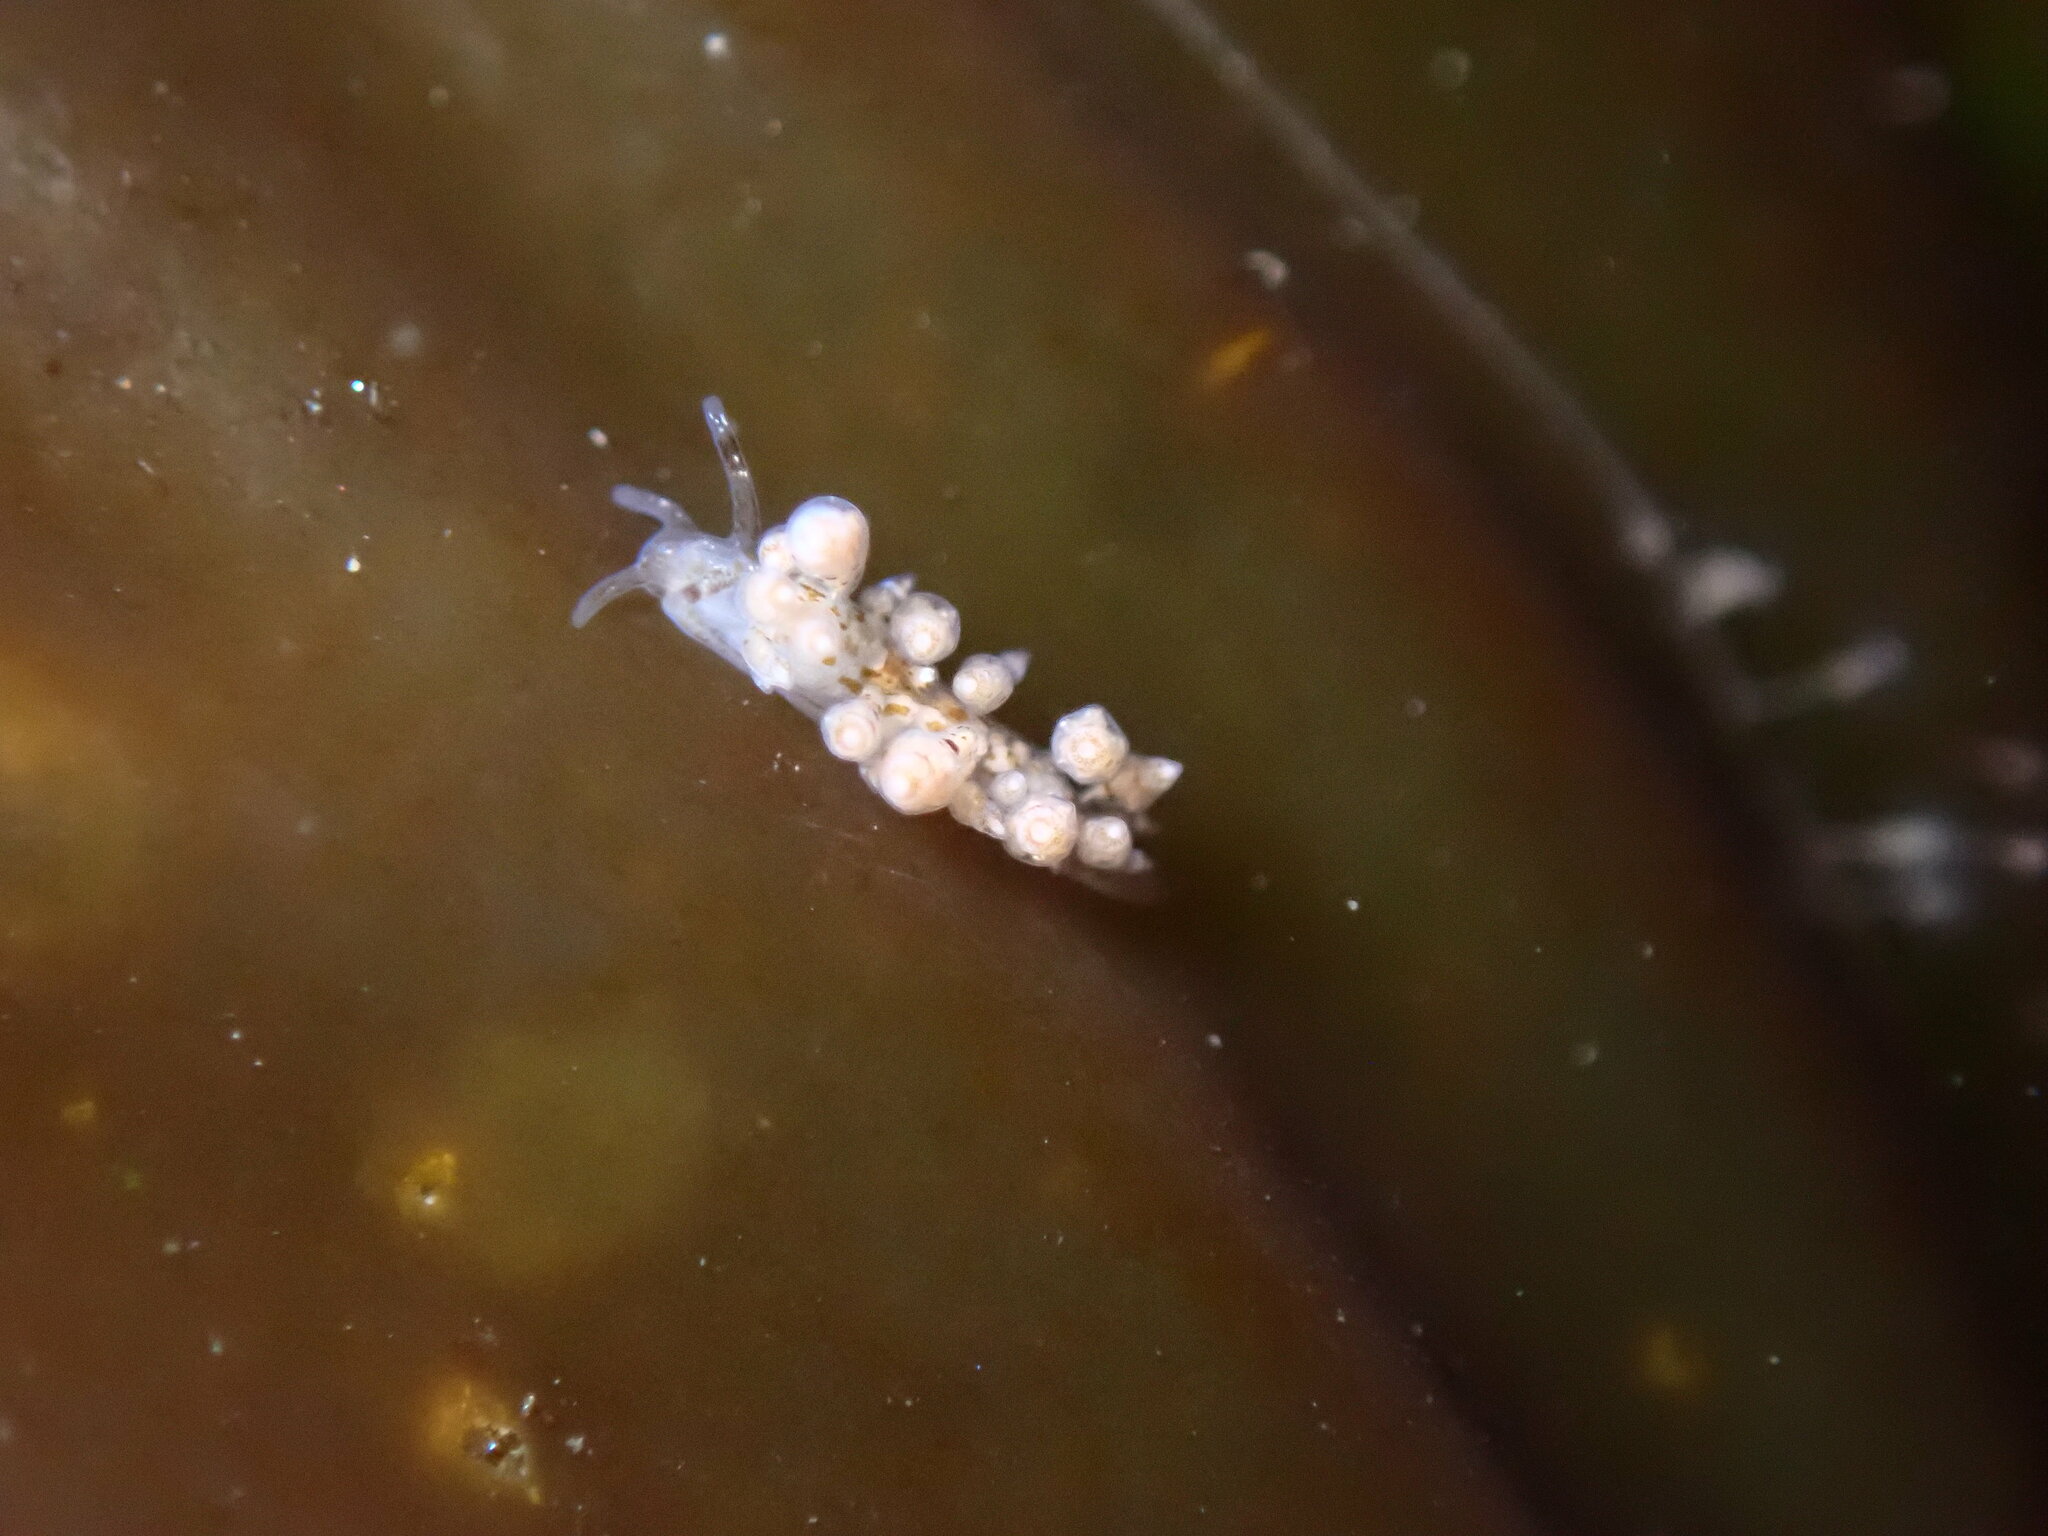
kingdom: Animalia
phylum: Mollusca
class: Gastropoda
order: Nudibranchia
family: Eubranchidae
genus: Eubranchus
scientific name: Eubranchus rustyus
